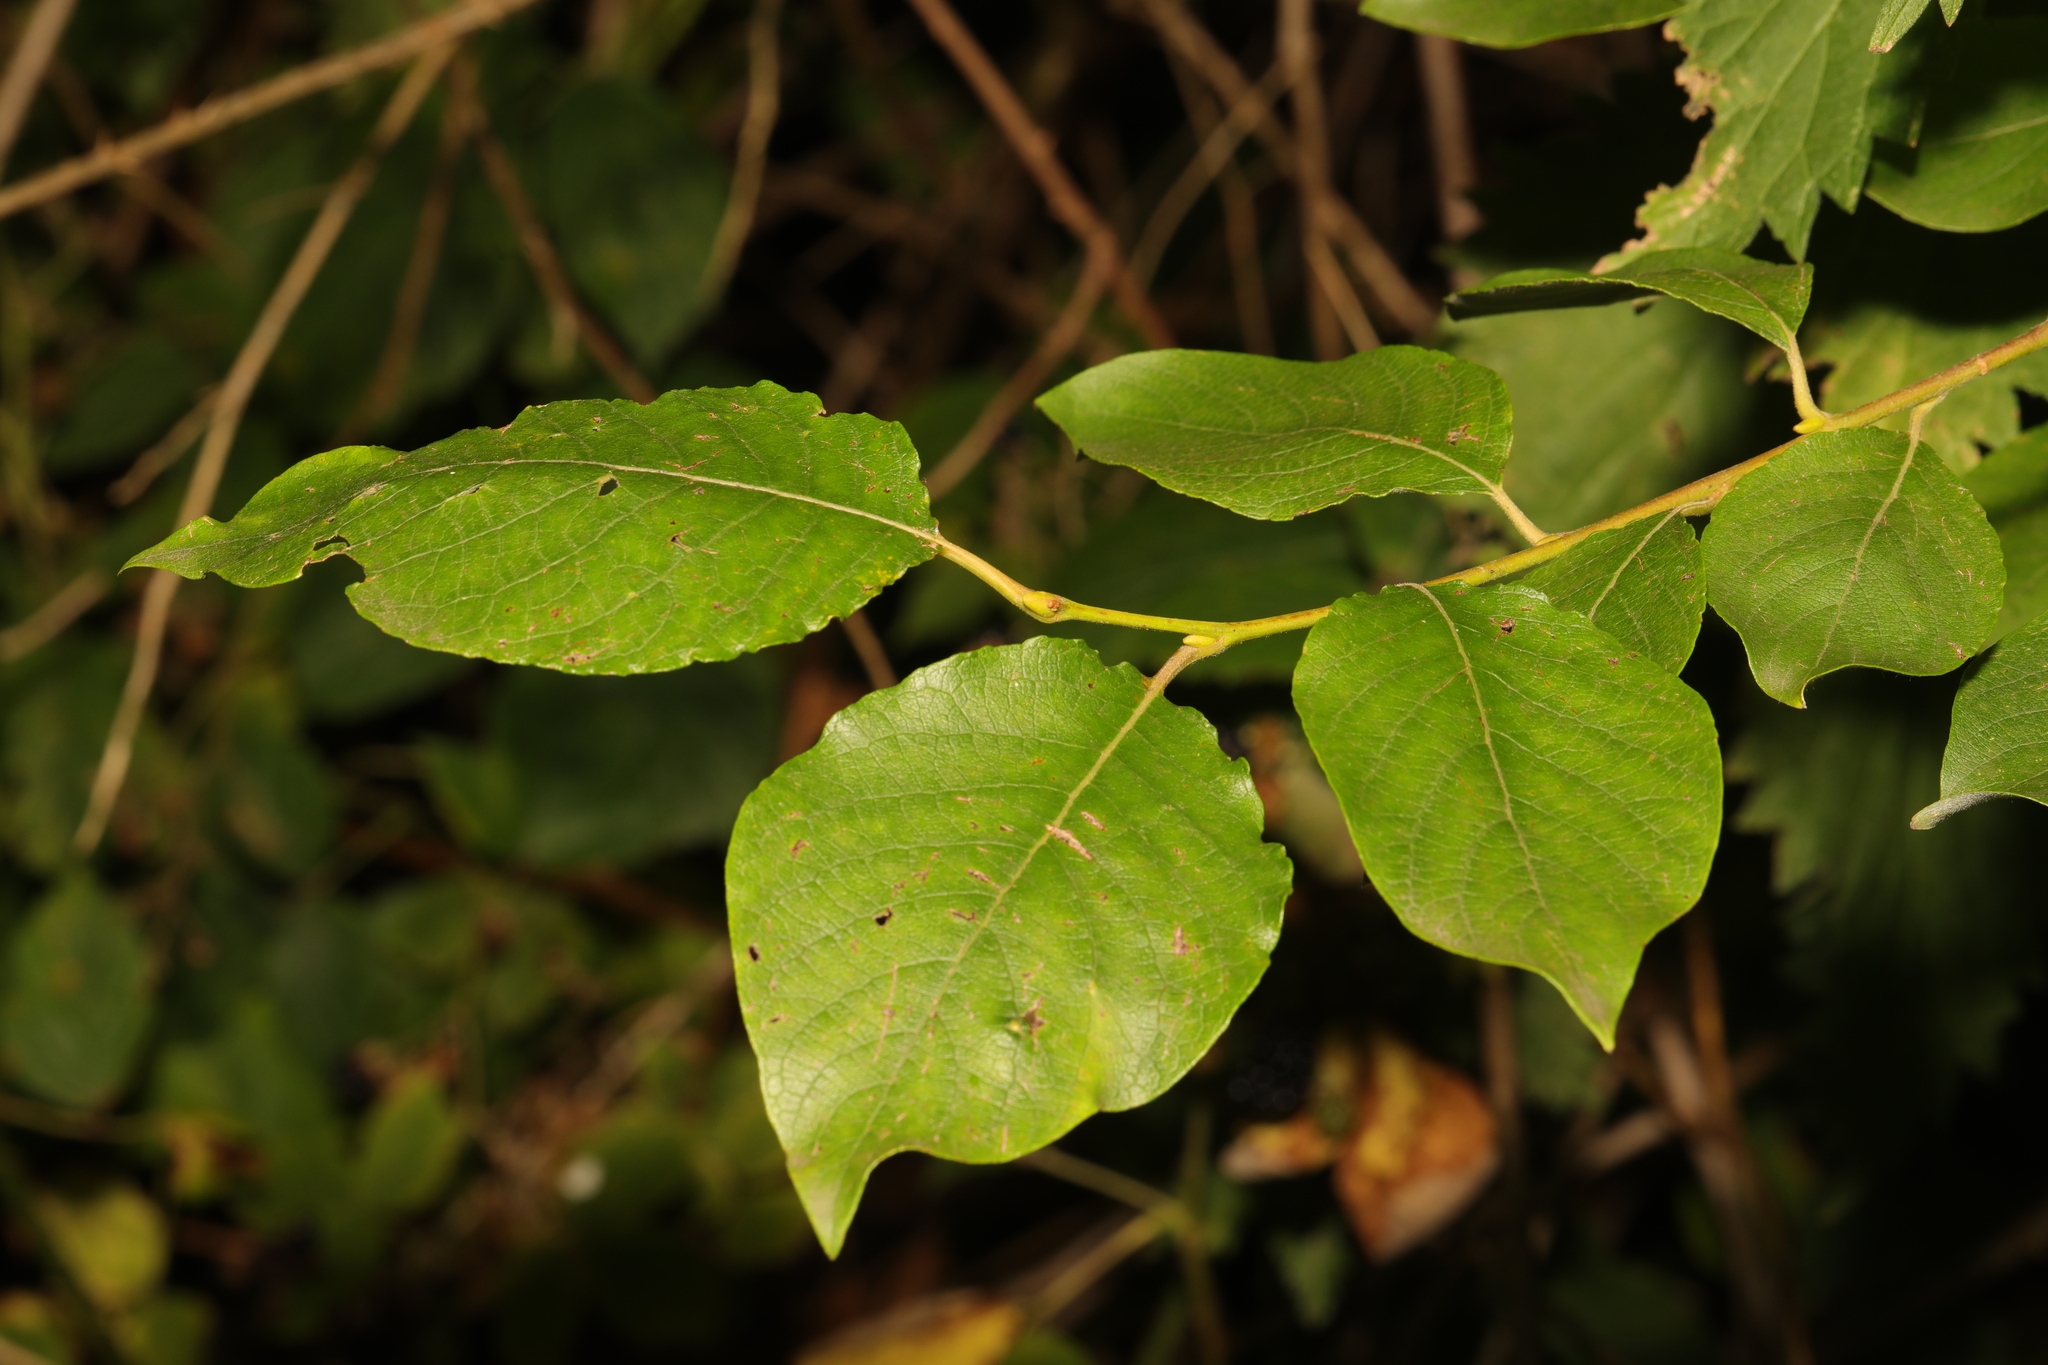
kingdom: Plantae
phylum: Tracheophyta
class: Magnoliopsida
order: Malpighiales
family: Salicaceae
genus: Salix
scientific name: Salix caprea
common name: Goat willow
